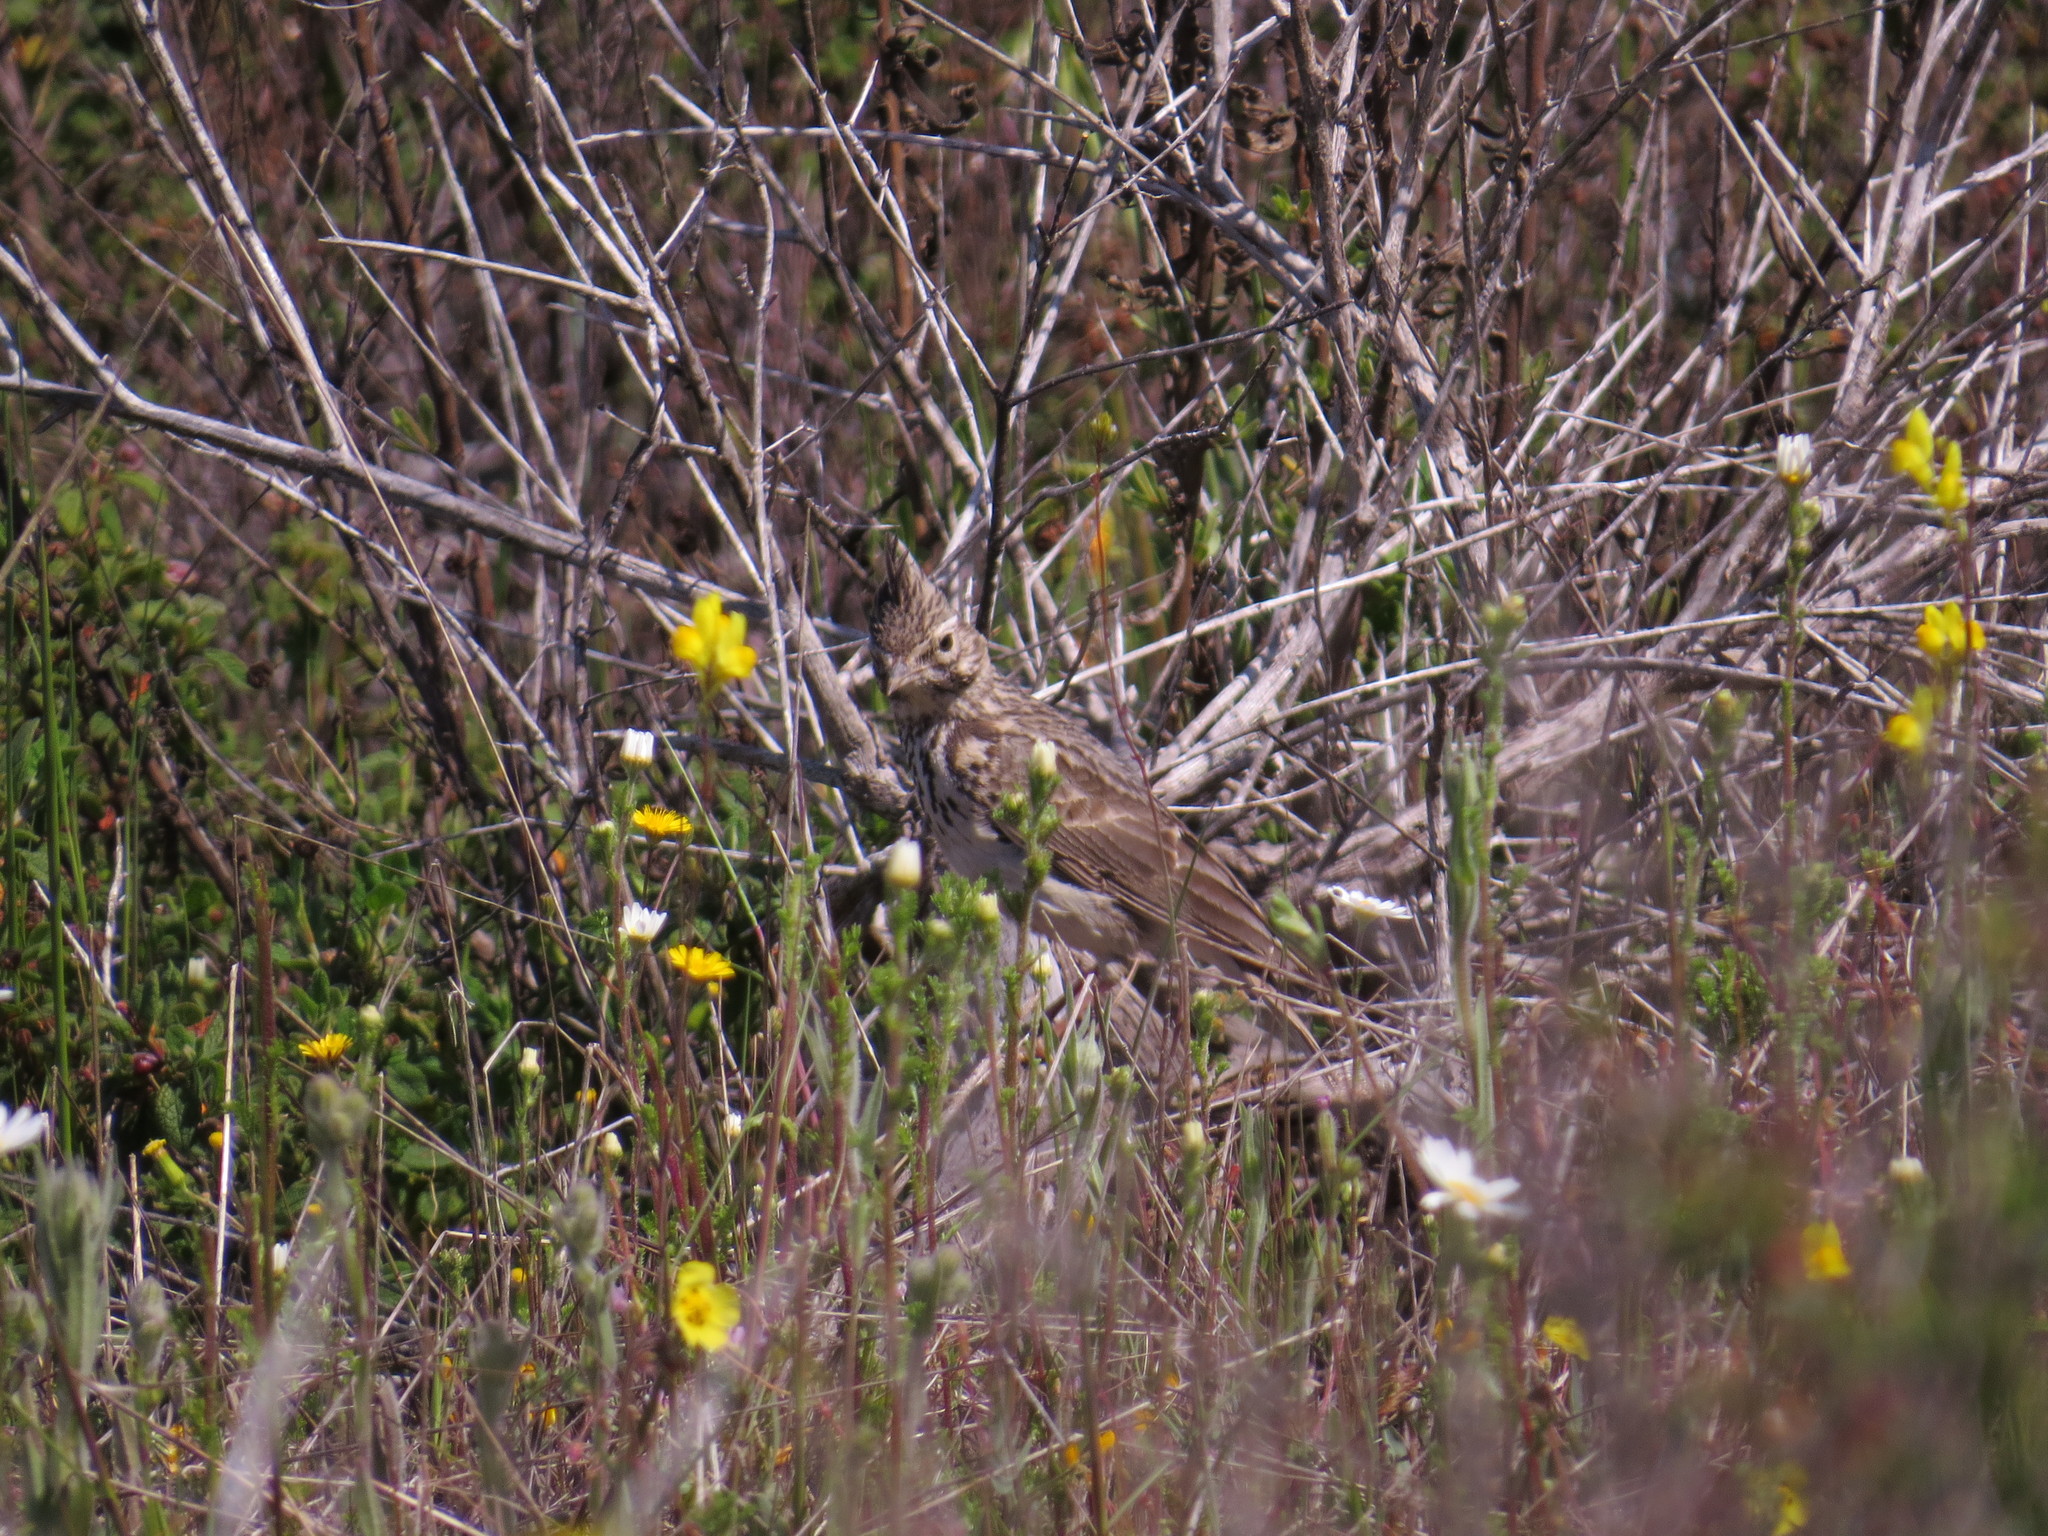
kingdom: Animalia
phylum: Chordata
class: Aves
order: Passeriformes
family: Alaudidae
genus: Galerida
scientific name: Galerida theklae
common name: Thekla lark
